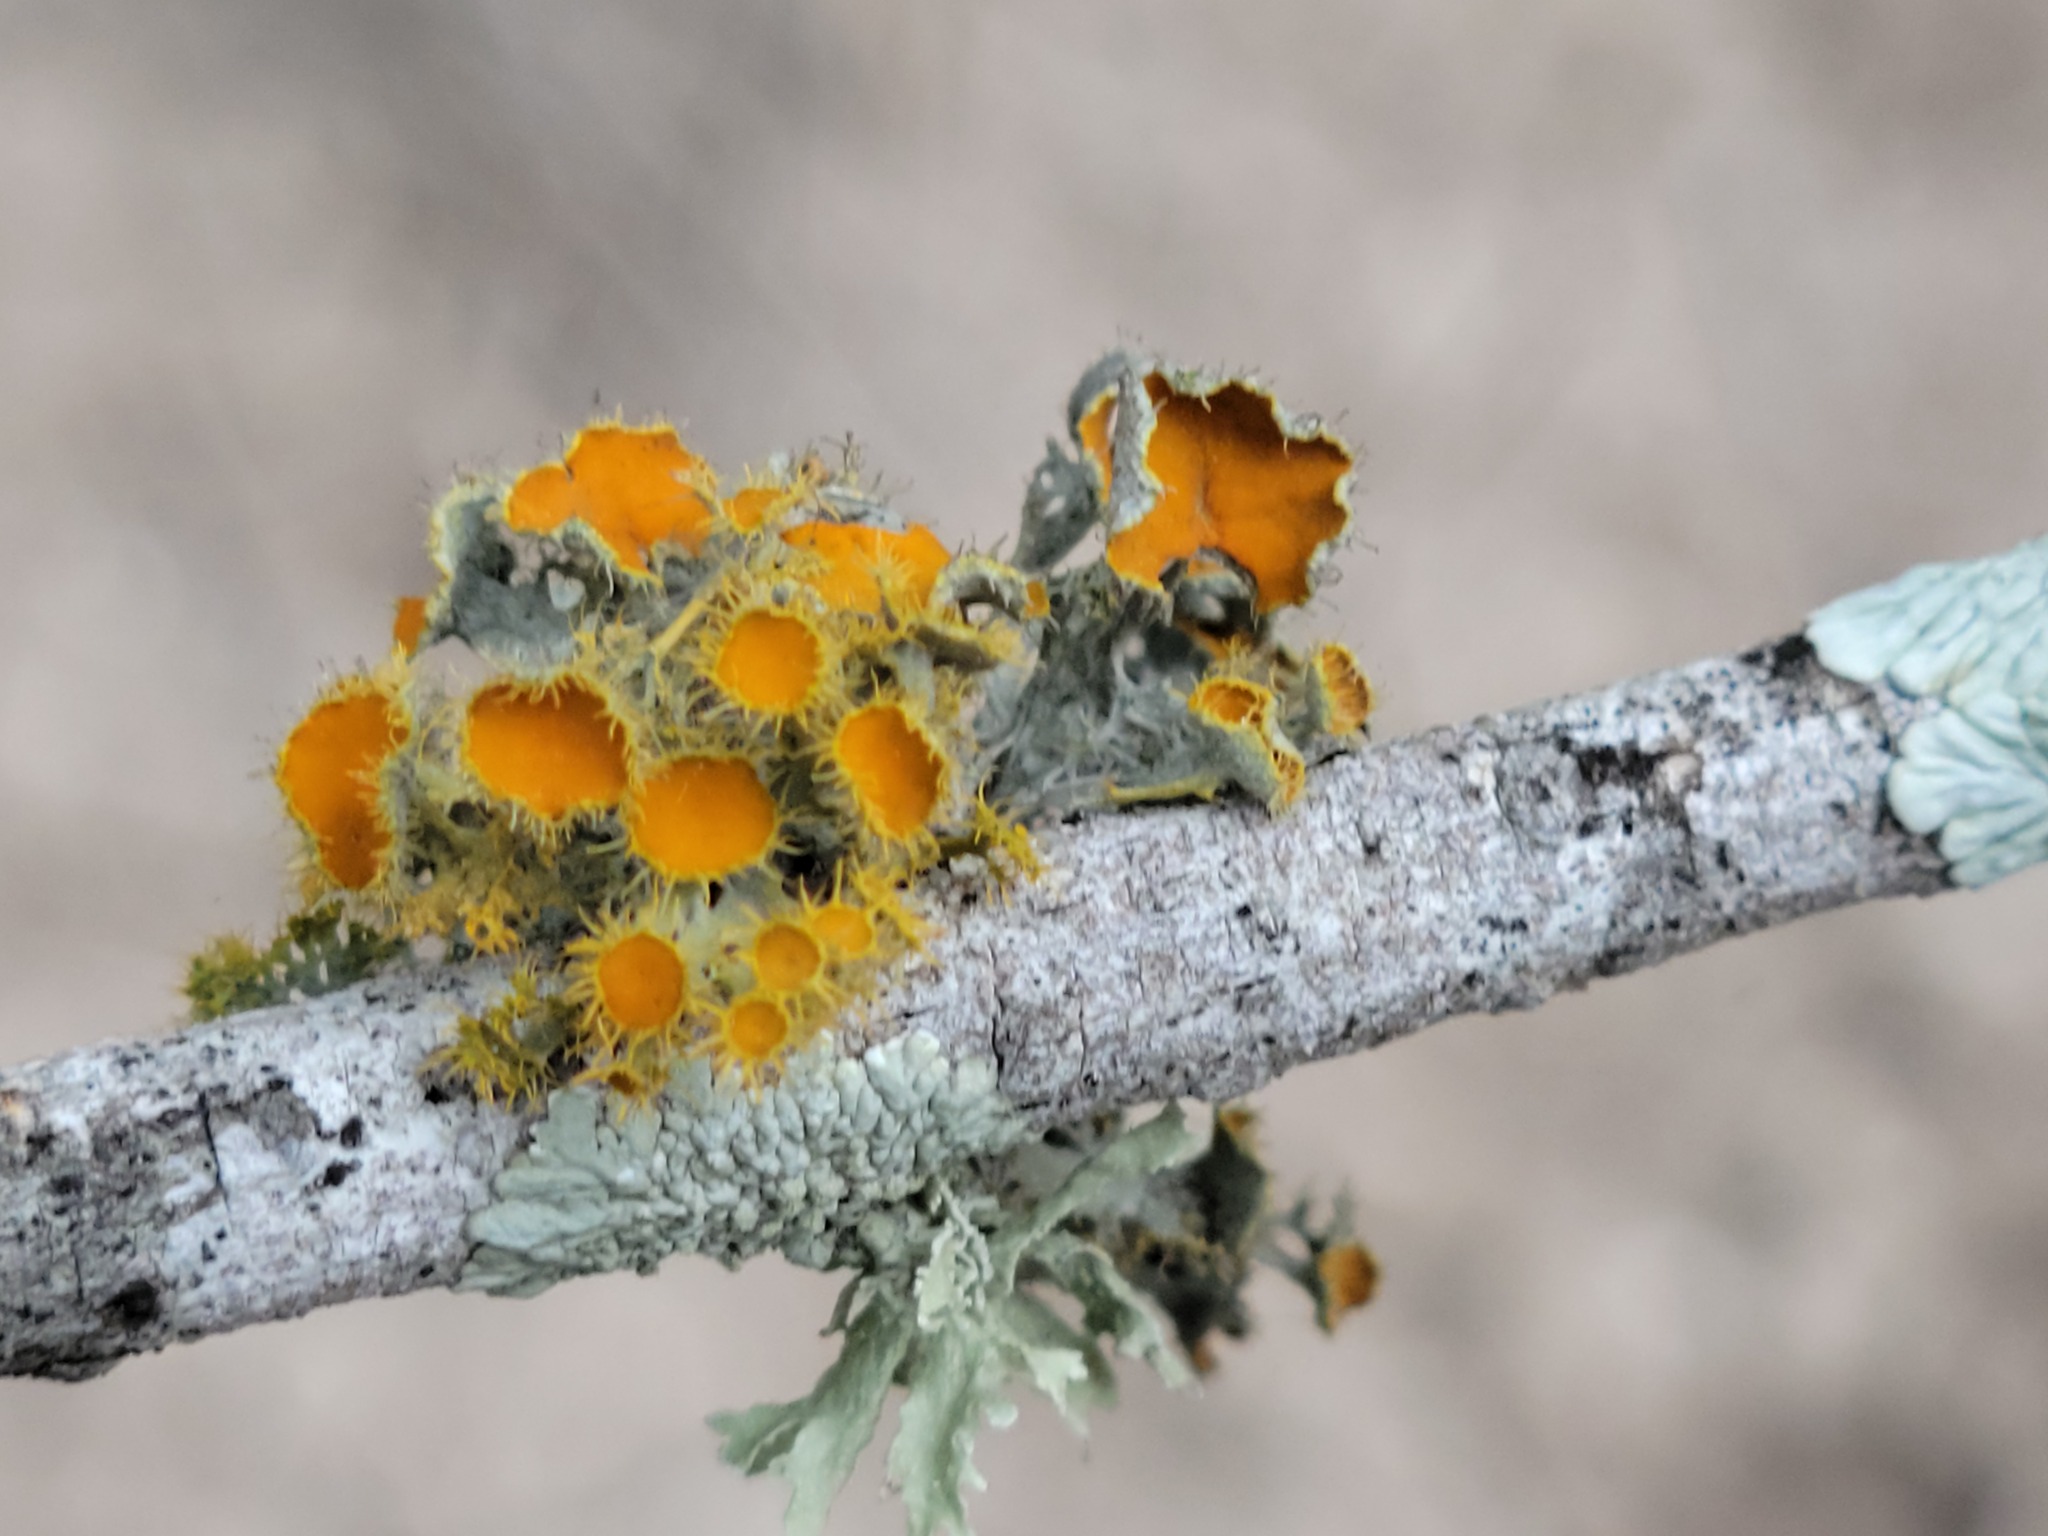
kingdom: Fungi
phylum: Ascomycota
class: Lecanoromycetes
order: Teloschistales
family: Teloschistaceae
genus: Niorma
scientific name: Niorma chrysophthalma
